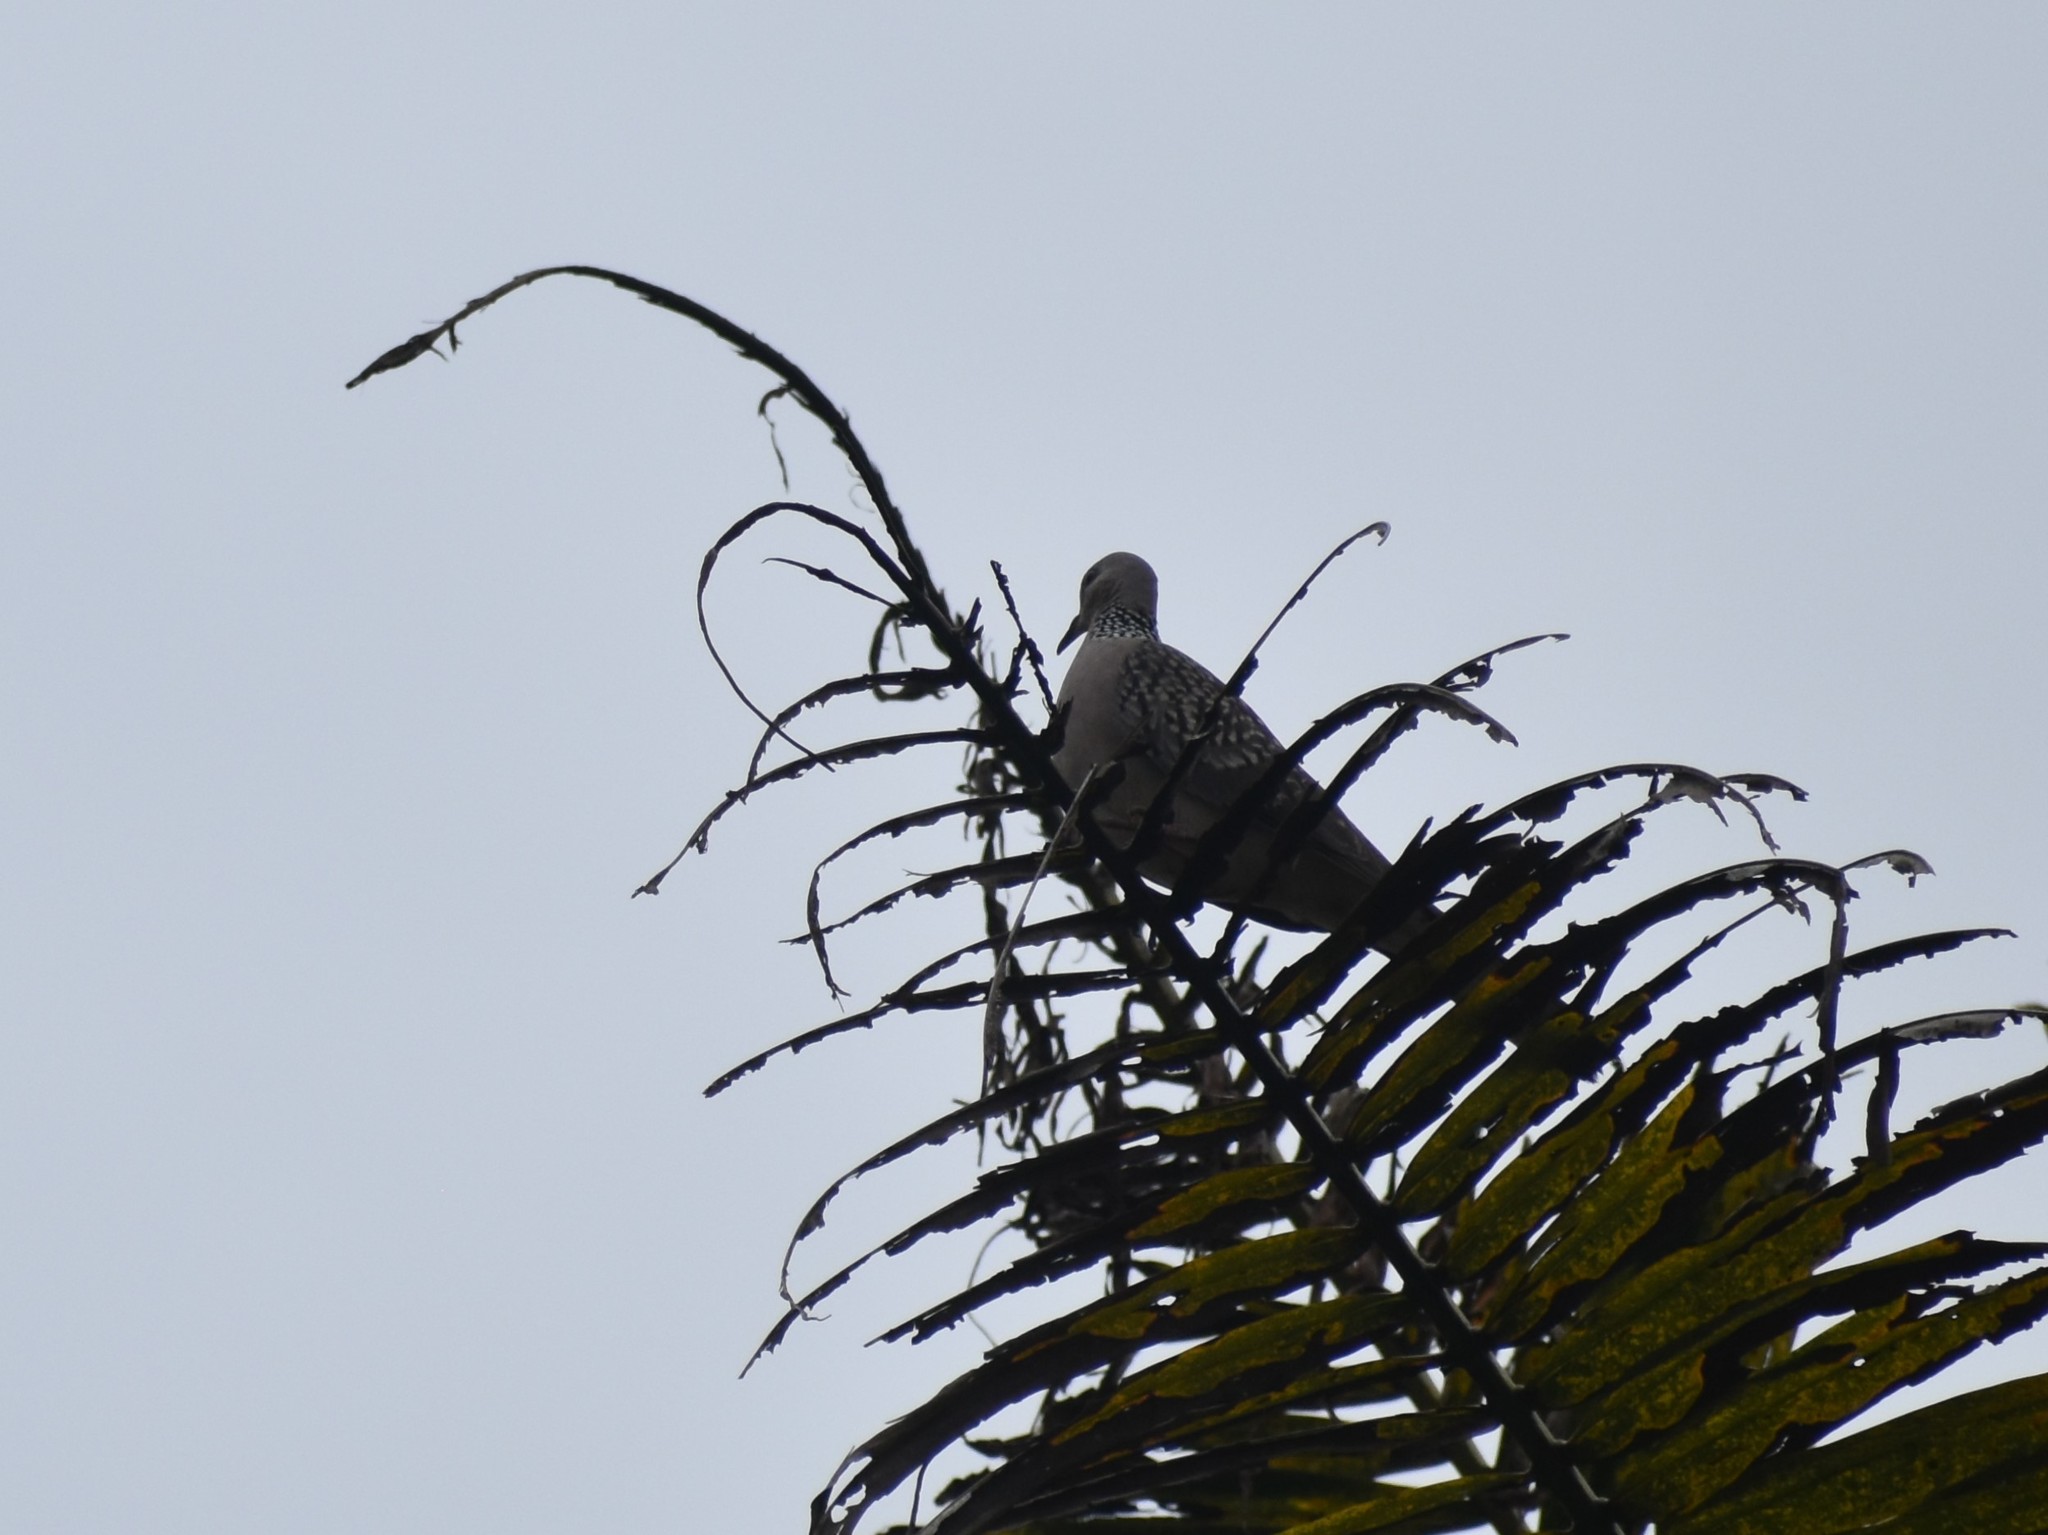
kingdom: Animalia
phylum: Chordata
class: Aves
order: Columbiformes
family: Columbidae
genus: Spilopelia
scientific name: Spilopelia chinensis
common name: Spotted dove
